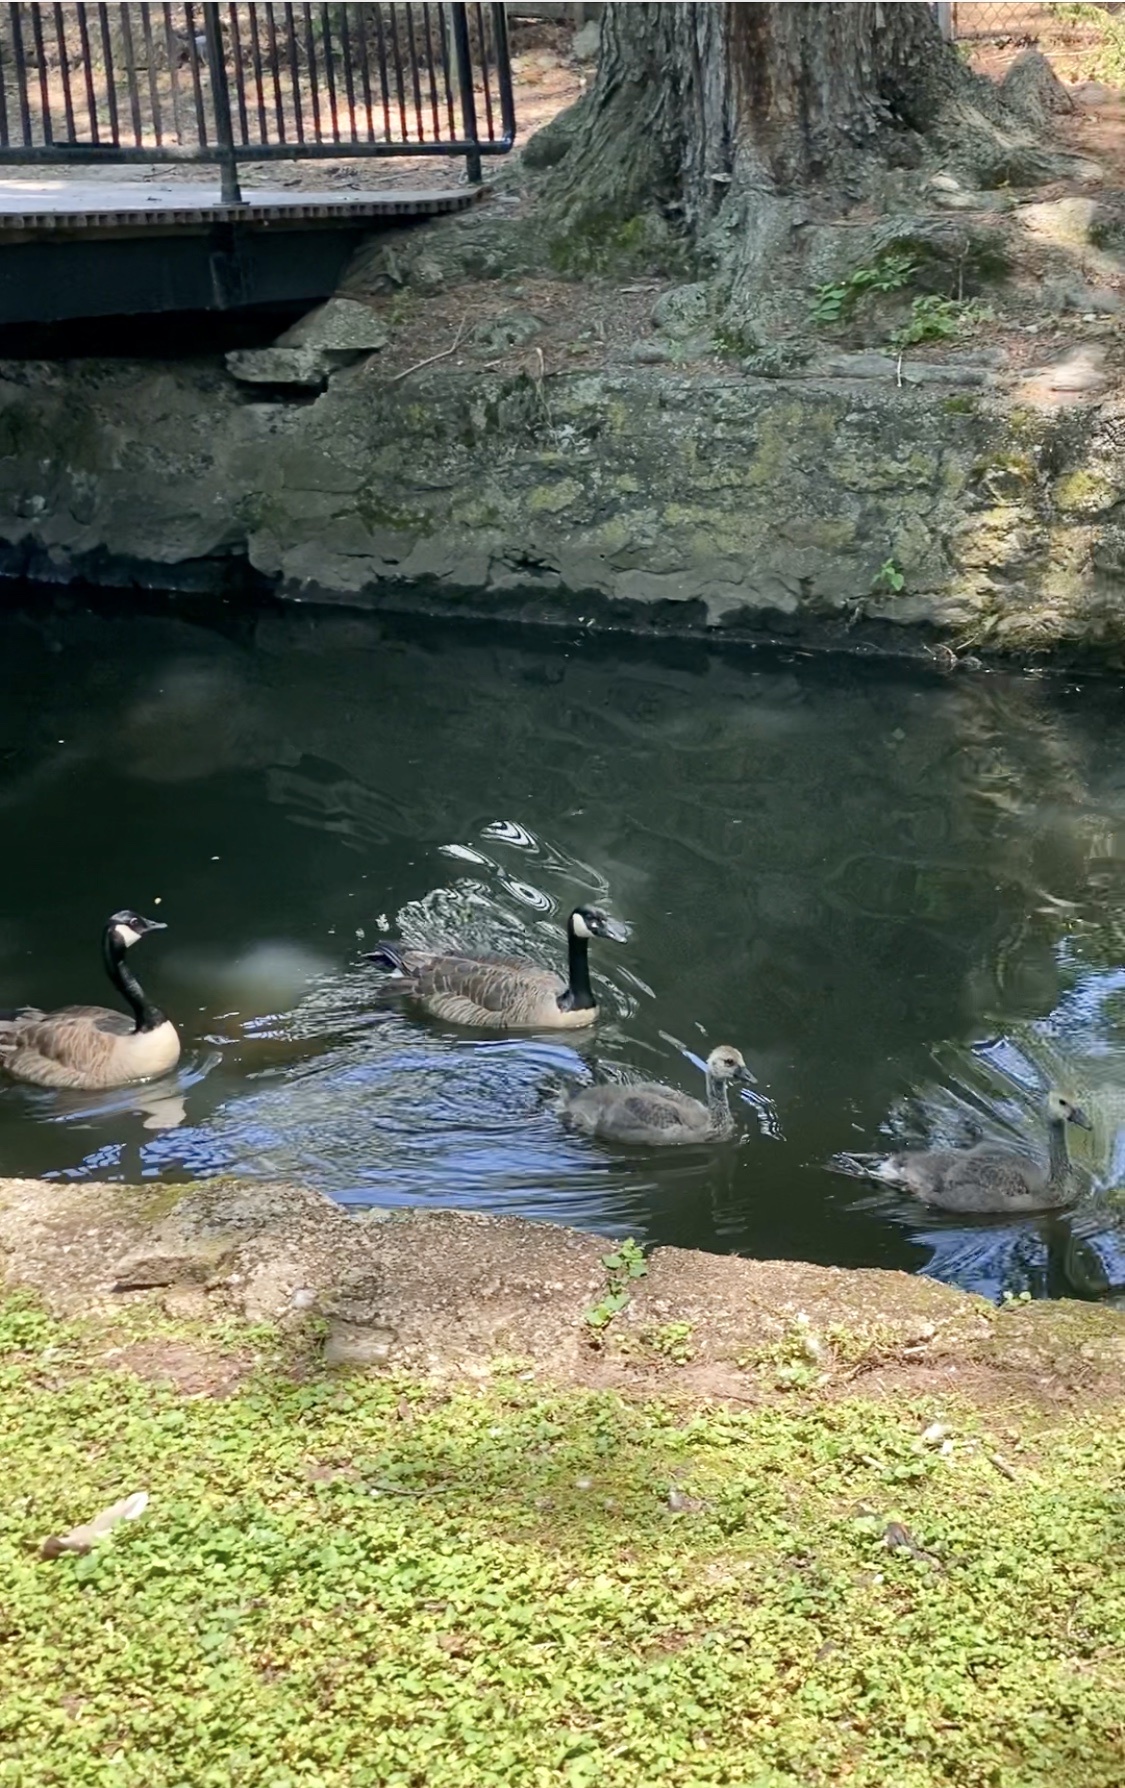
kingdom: Animalia
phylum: Chordata
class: Aves
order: Anseriformes
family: Anatidae
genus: Branta
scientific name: Branta canadensis
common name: Canada goose
